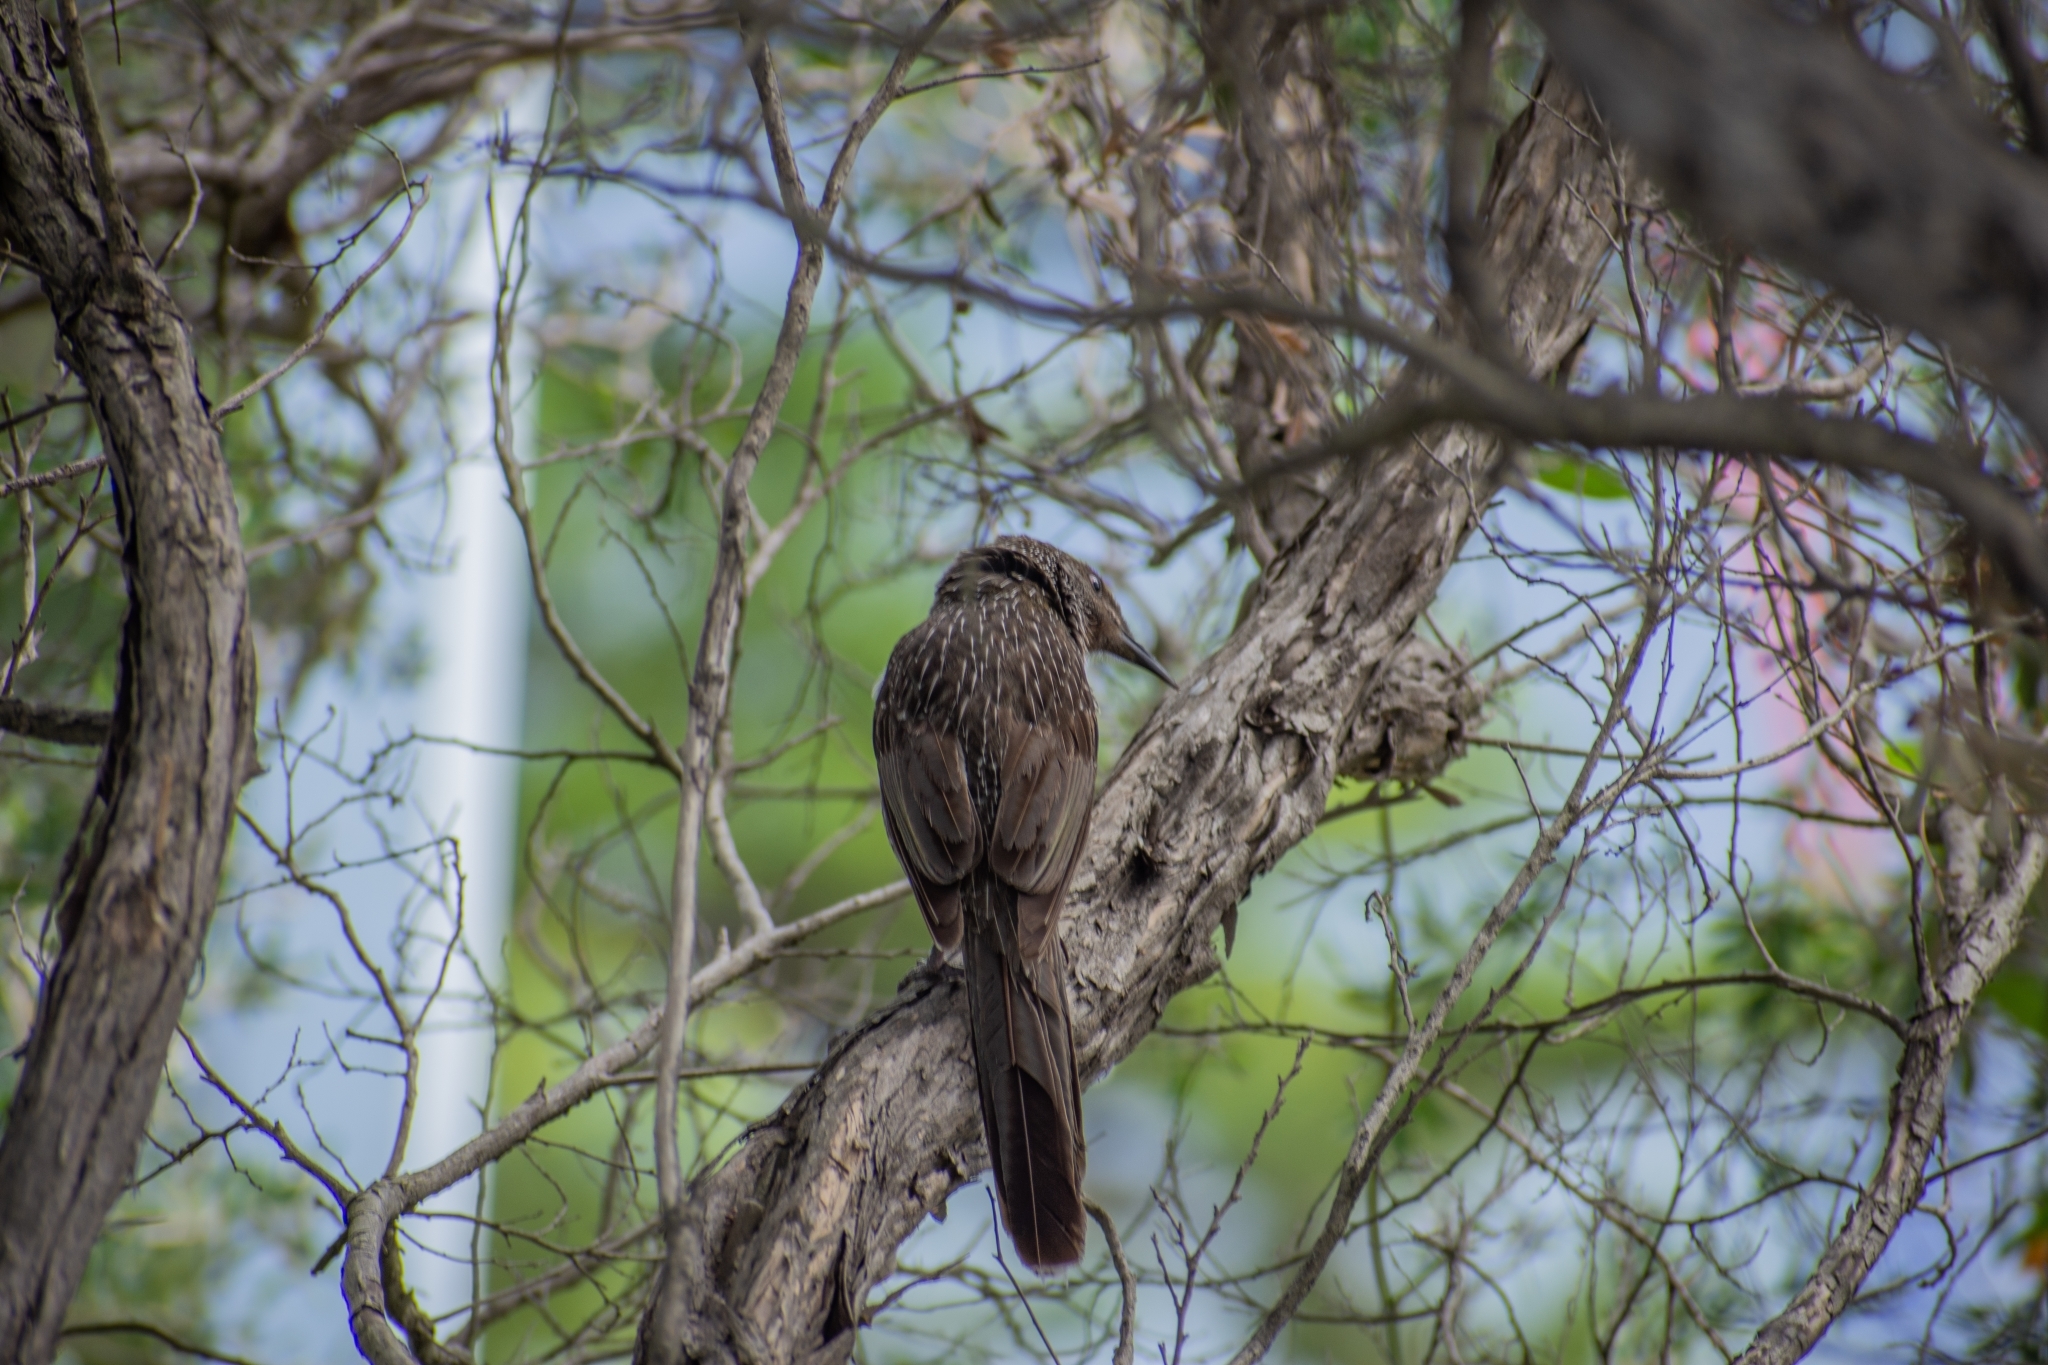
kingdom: Animalia
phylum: Chordata
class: Aves
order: Passeriformes
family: Meliphagidae
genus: Anthochaera
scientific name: Anthochaera chrysoptera
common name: Little wattlebird
